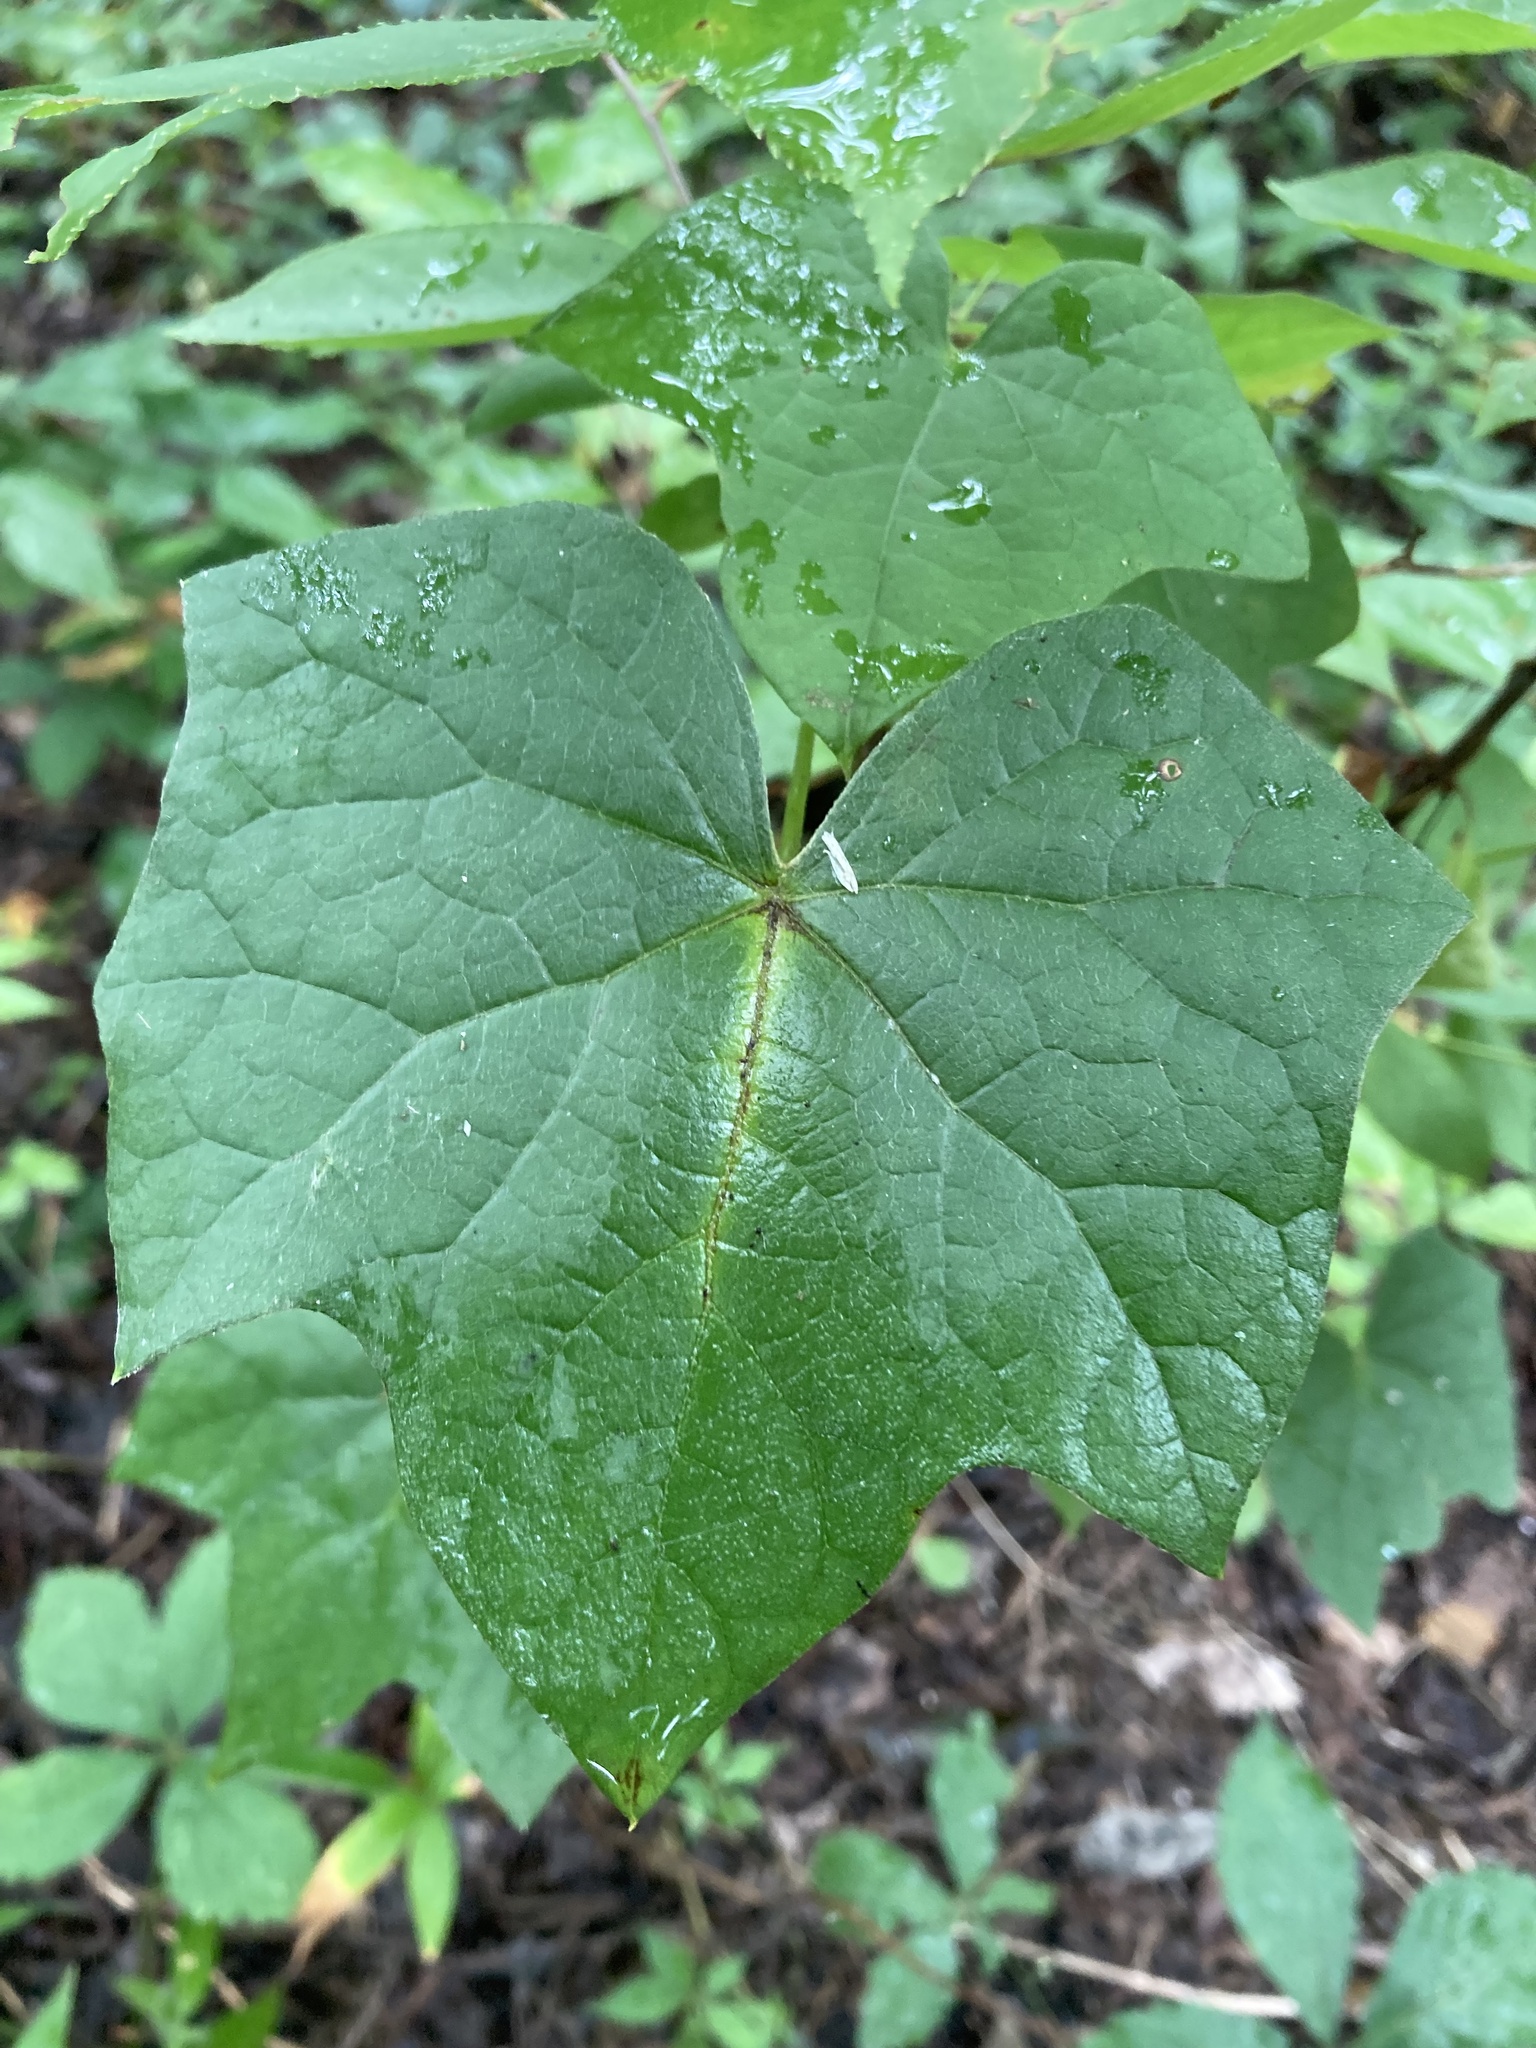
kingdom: Plantae
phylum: Tracheophyta
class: Magnoliopsida
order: Ranunculales
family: Menispermaceae
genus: Menispermum
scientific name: Menispermum canadense
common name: Moonseed
